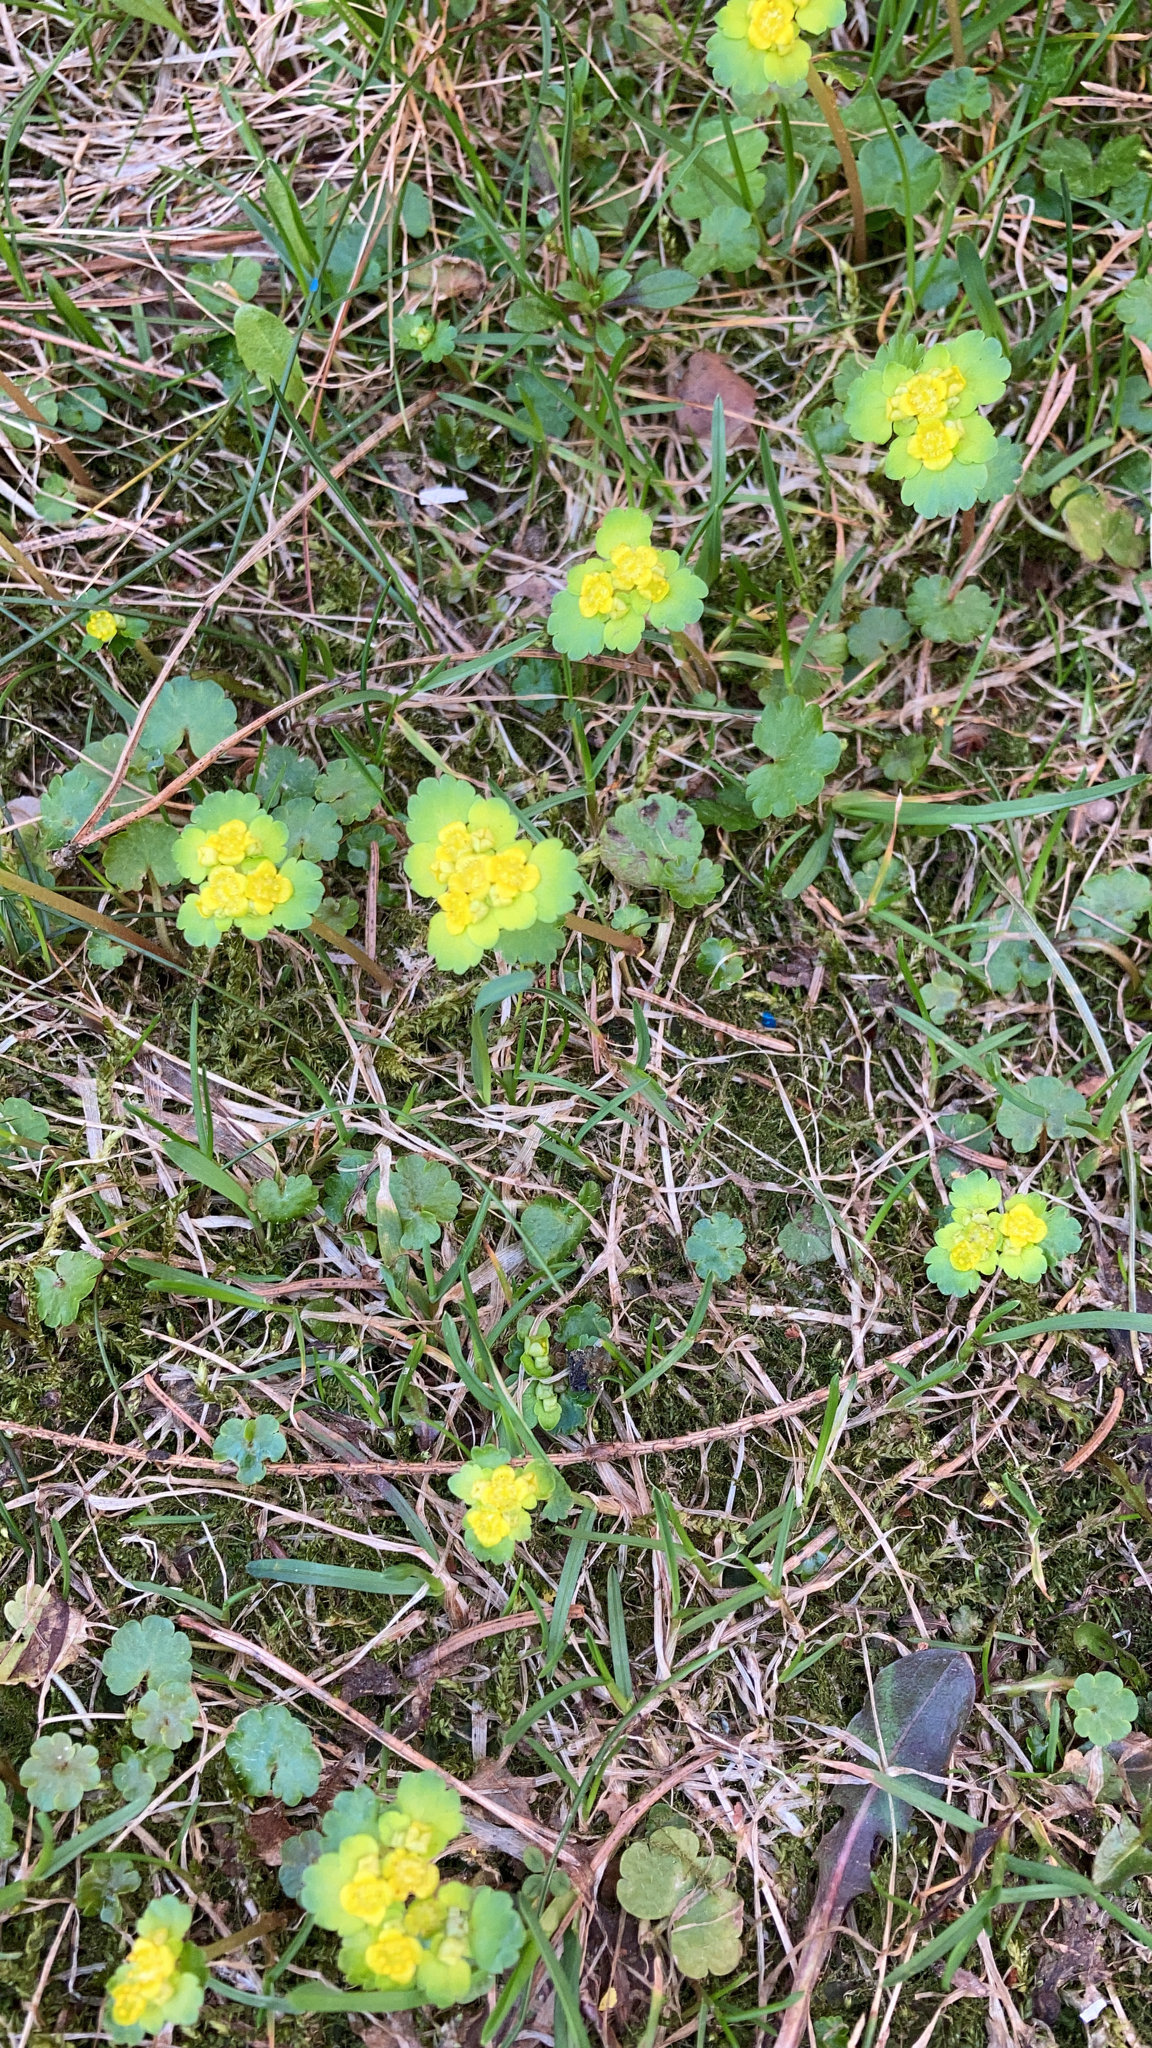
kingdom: Plantae
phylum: Tracheophyta
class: Magnoliopsida
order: Saxifragales
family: Saxifragaceae
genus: Chrysosplenium
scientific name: Chrysosplenium alternifolium
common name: Alternate-leaved golden-saxifrage
